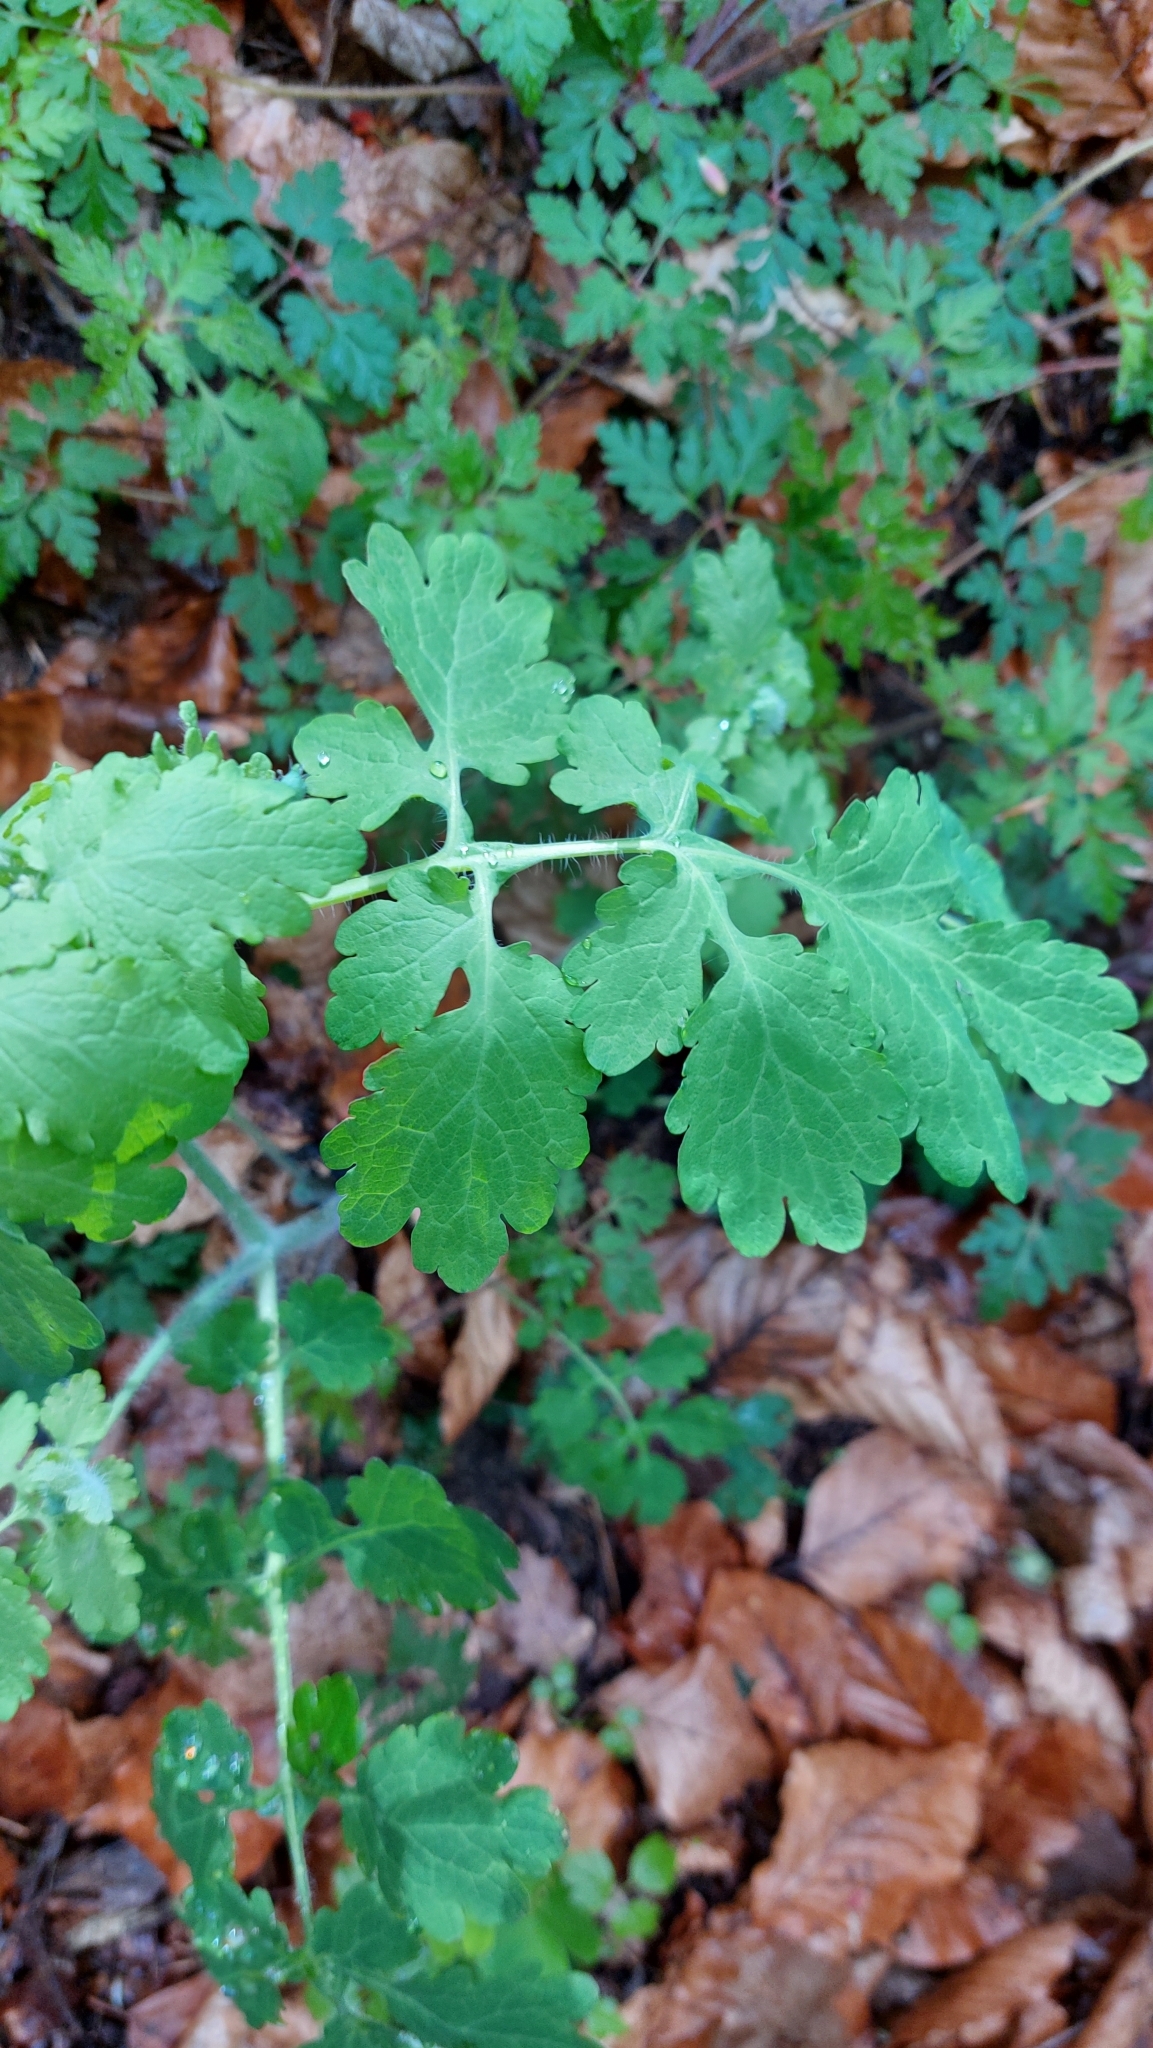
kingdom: Plantae
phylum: Tracheophyta
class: Magnoliopsida
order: Ranunculales
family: Papaveraceae
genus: Chelidonium
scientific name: Chelidonium majus
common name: Greater celandine
